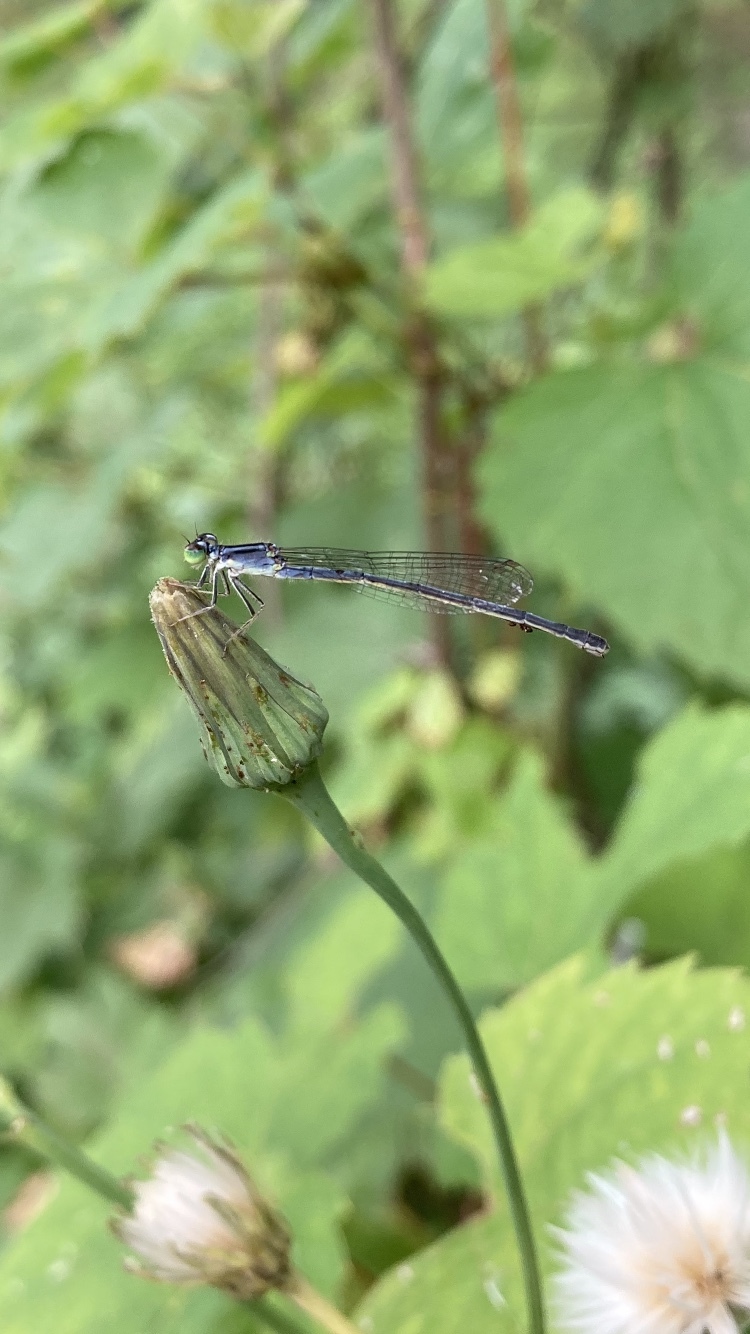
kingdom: Animalia
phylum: Arthropoda
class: Insecta
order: Odonata
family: Coenagrionidae
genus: Ischnura
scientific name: Ischnura verticalis
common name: Eastern forktail
